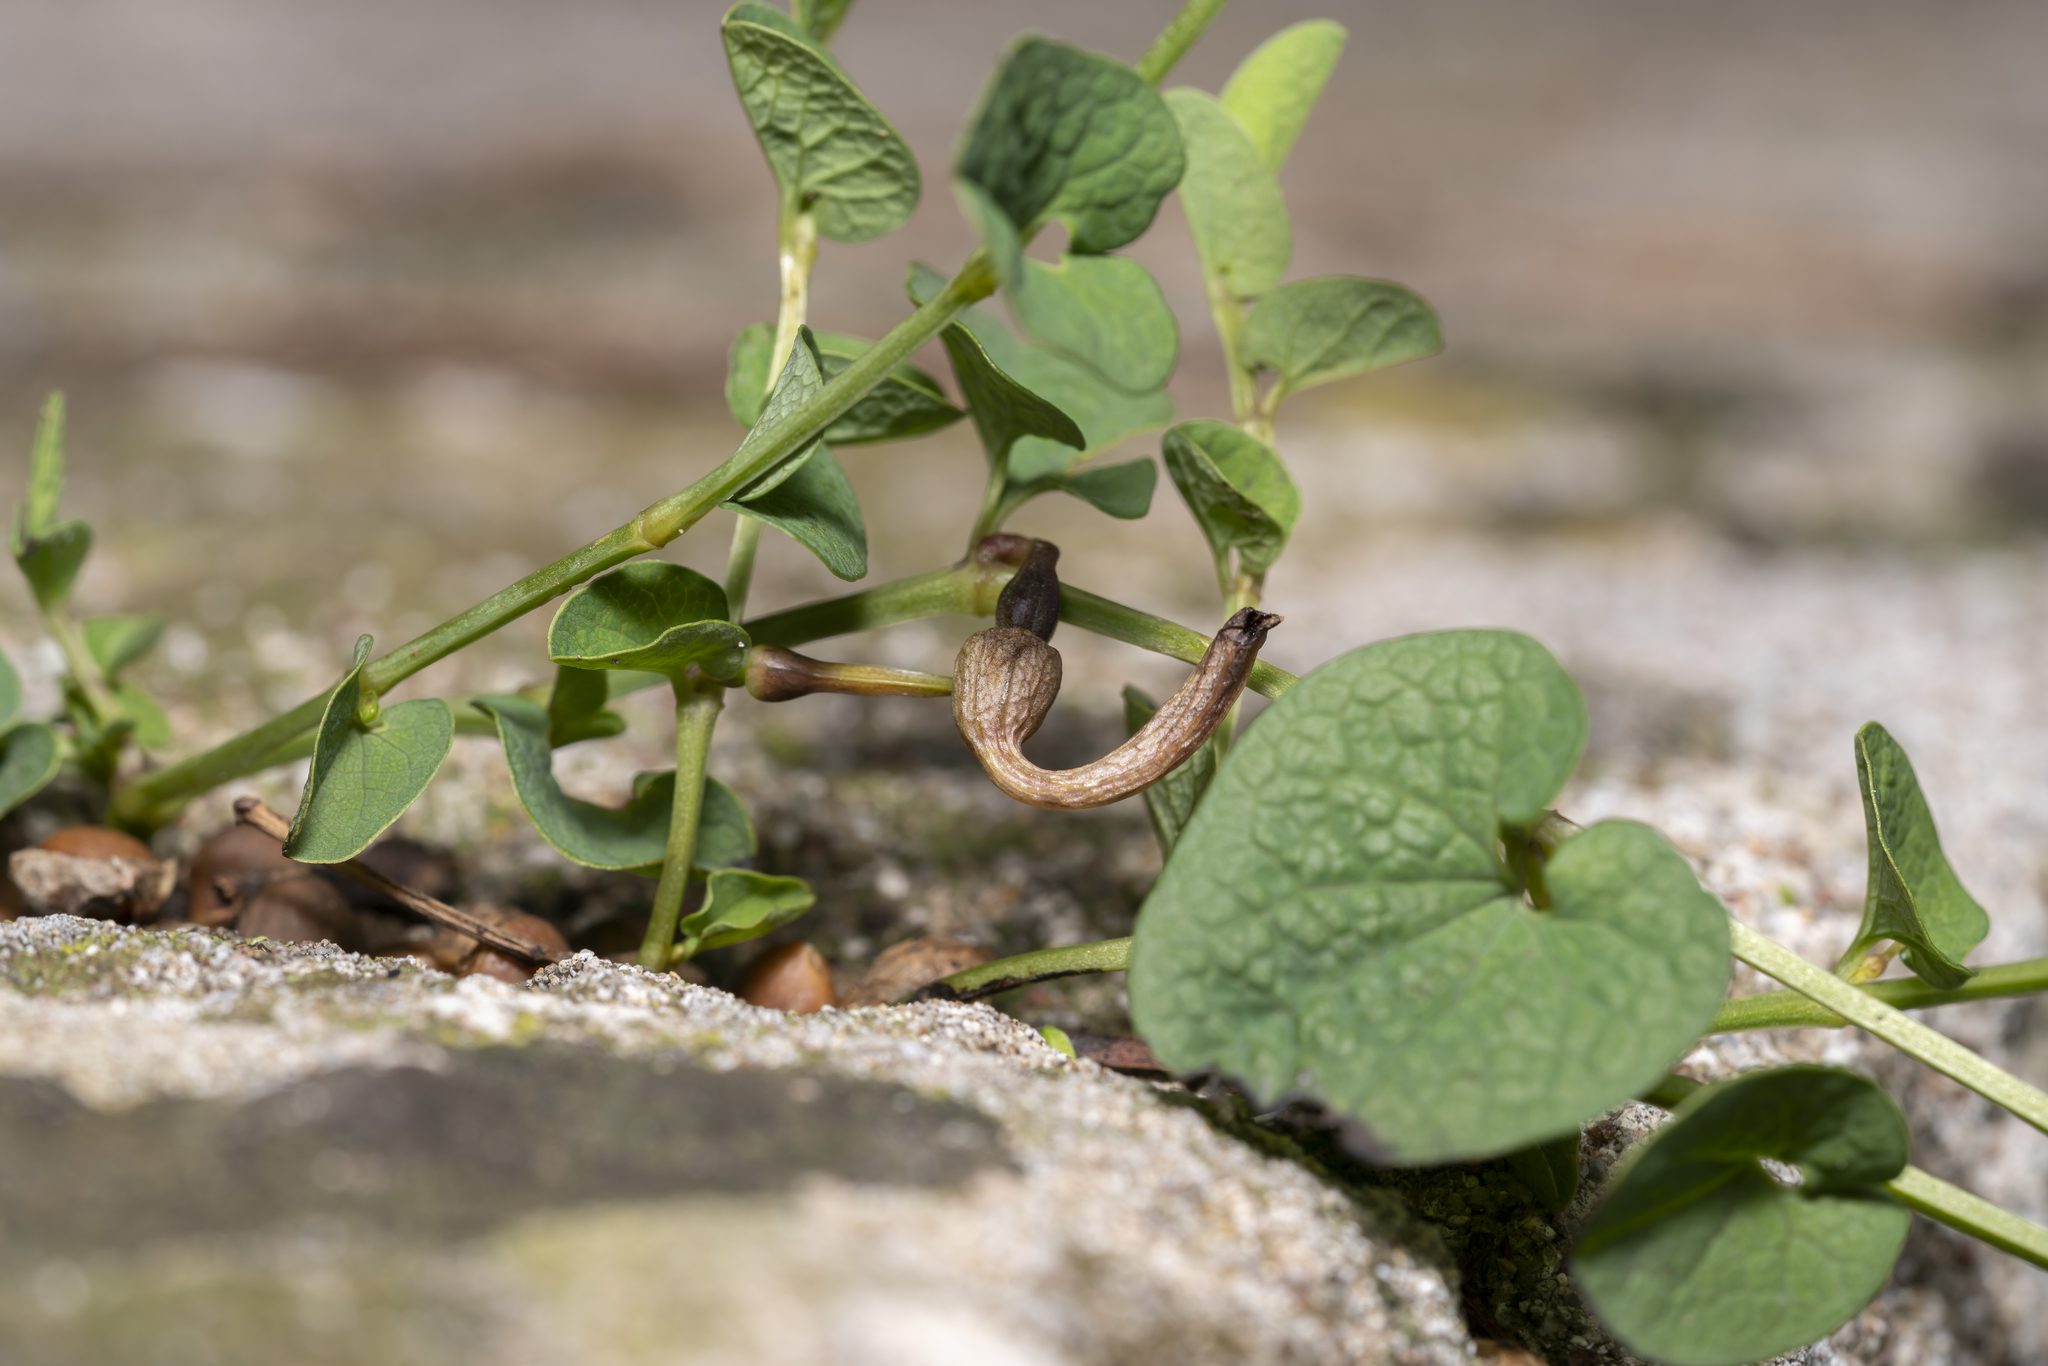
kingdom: Plantae
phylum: Tracheophyta
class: Magnoliopsida
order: Piperales
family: Aristolochiaceae
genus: Aristolochia
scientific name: Aristolochia parvifolia
